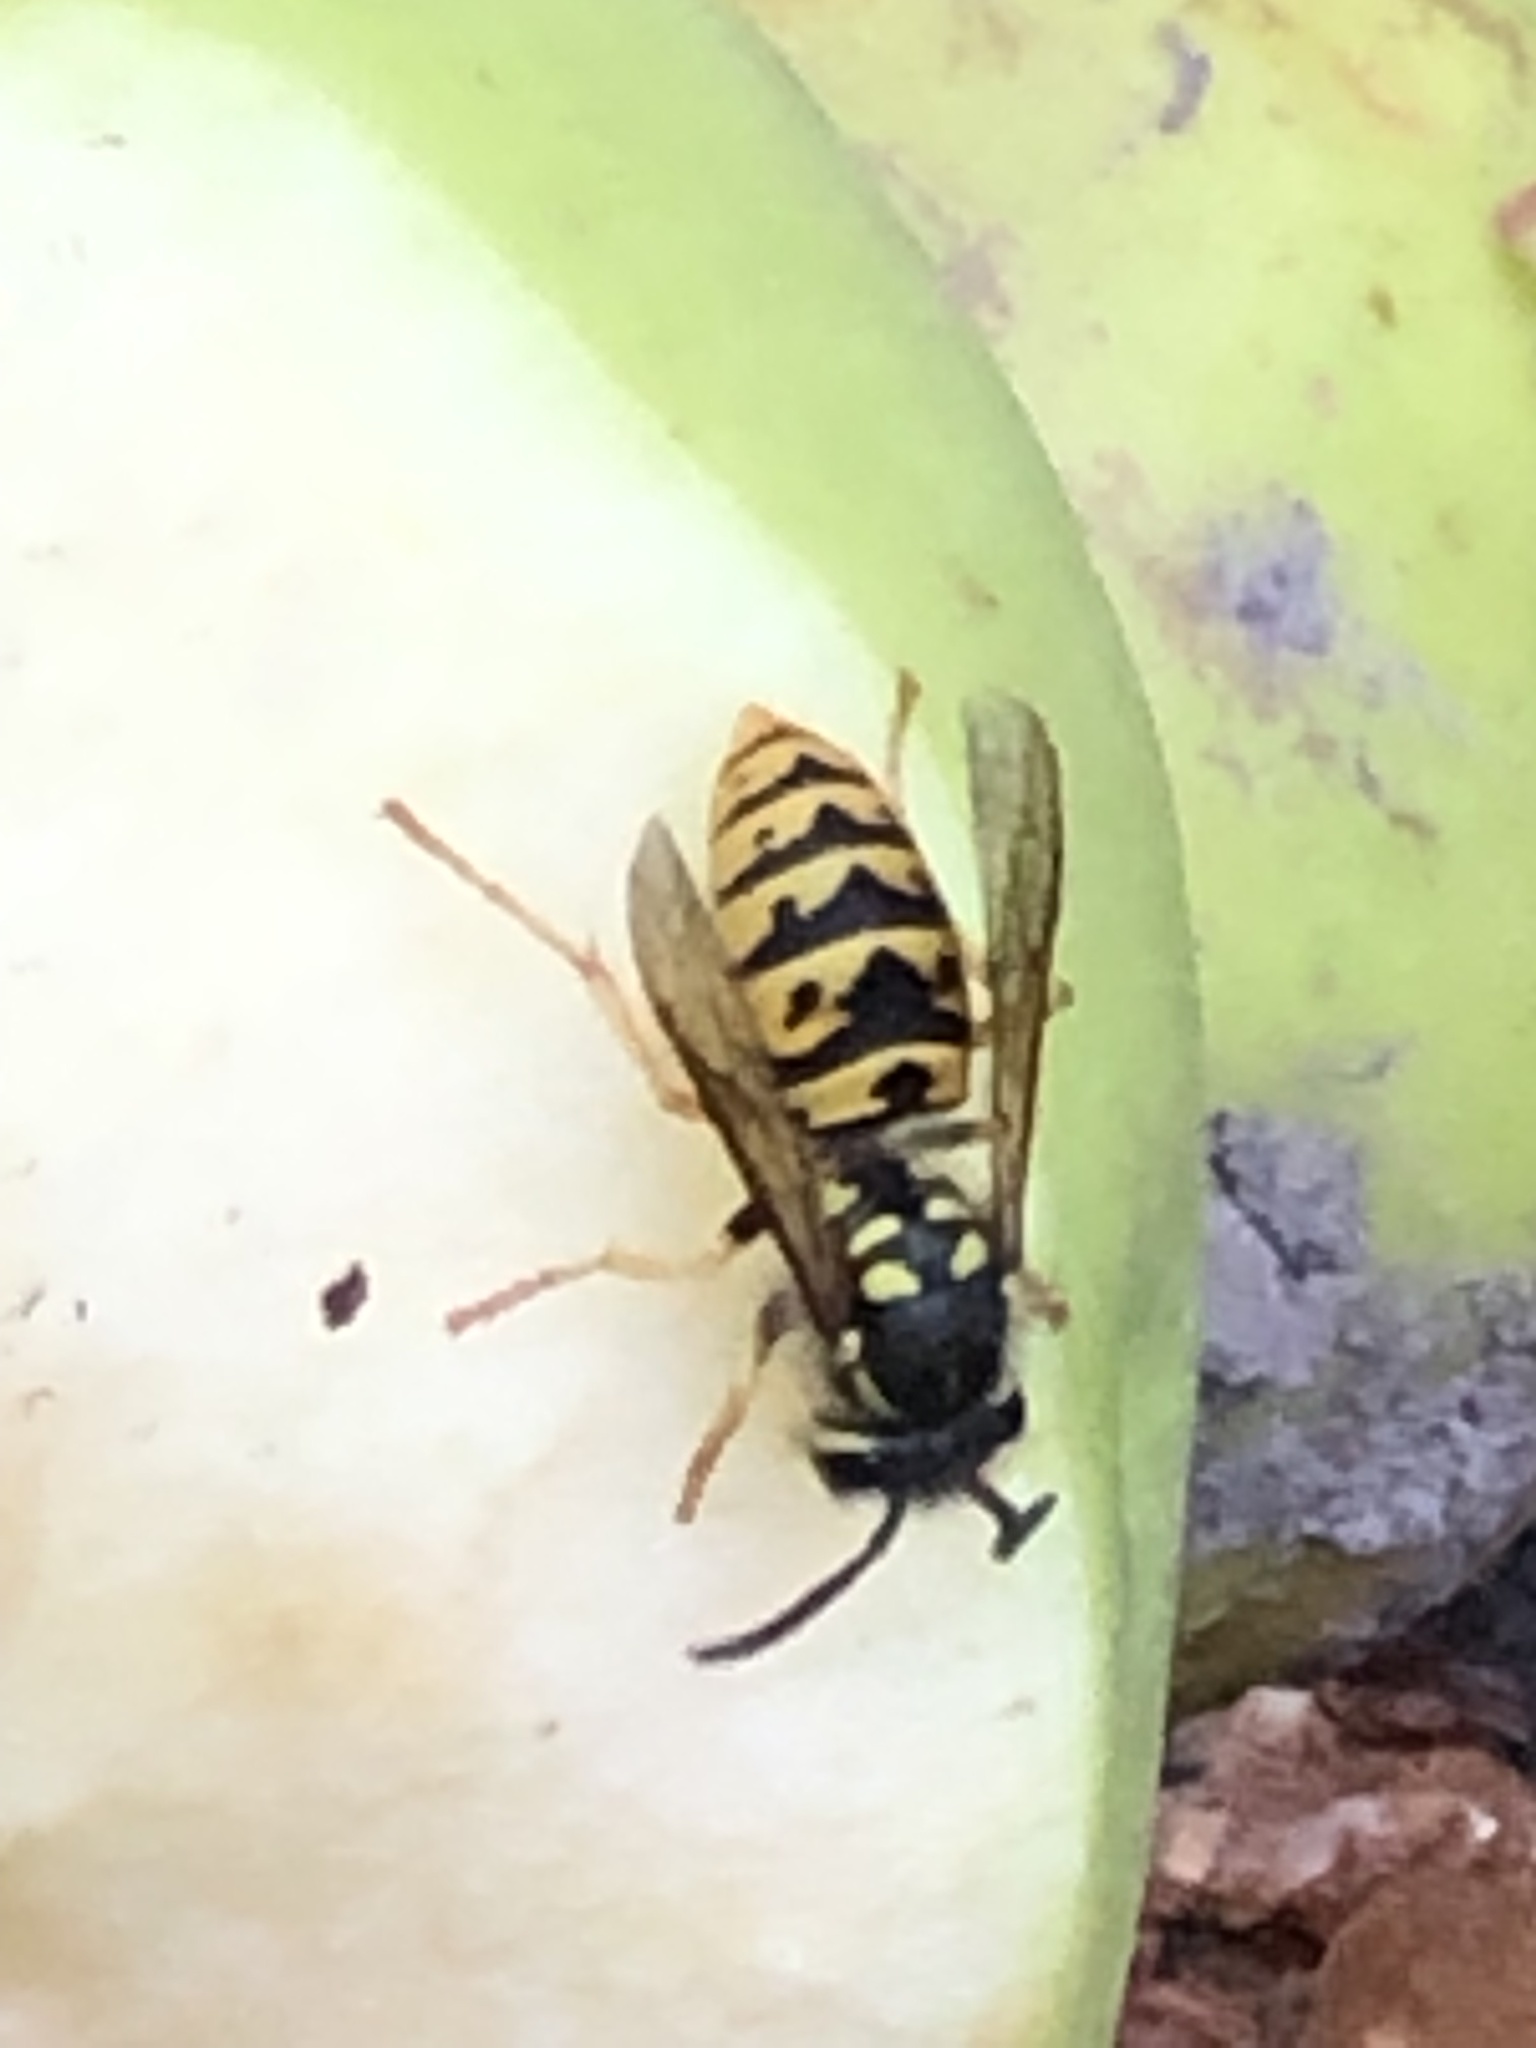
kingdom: Animalia
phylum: Arthropoda
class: Insecta
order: Hymenoptera
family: Vespidae
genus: Vespula
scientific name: Vespula germanica
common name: German wasp
